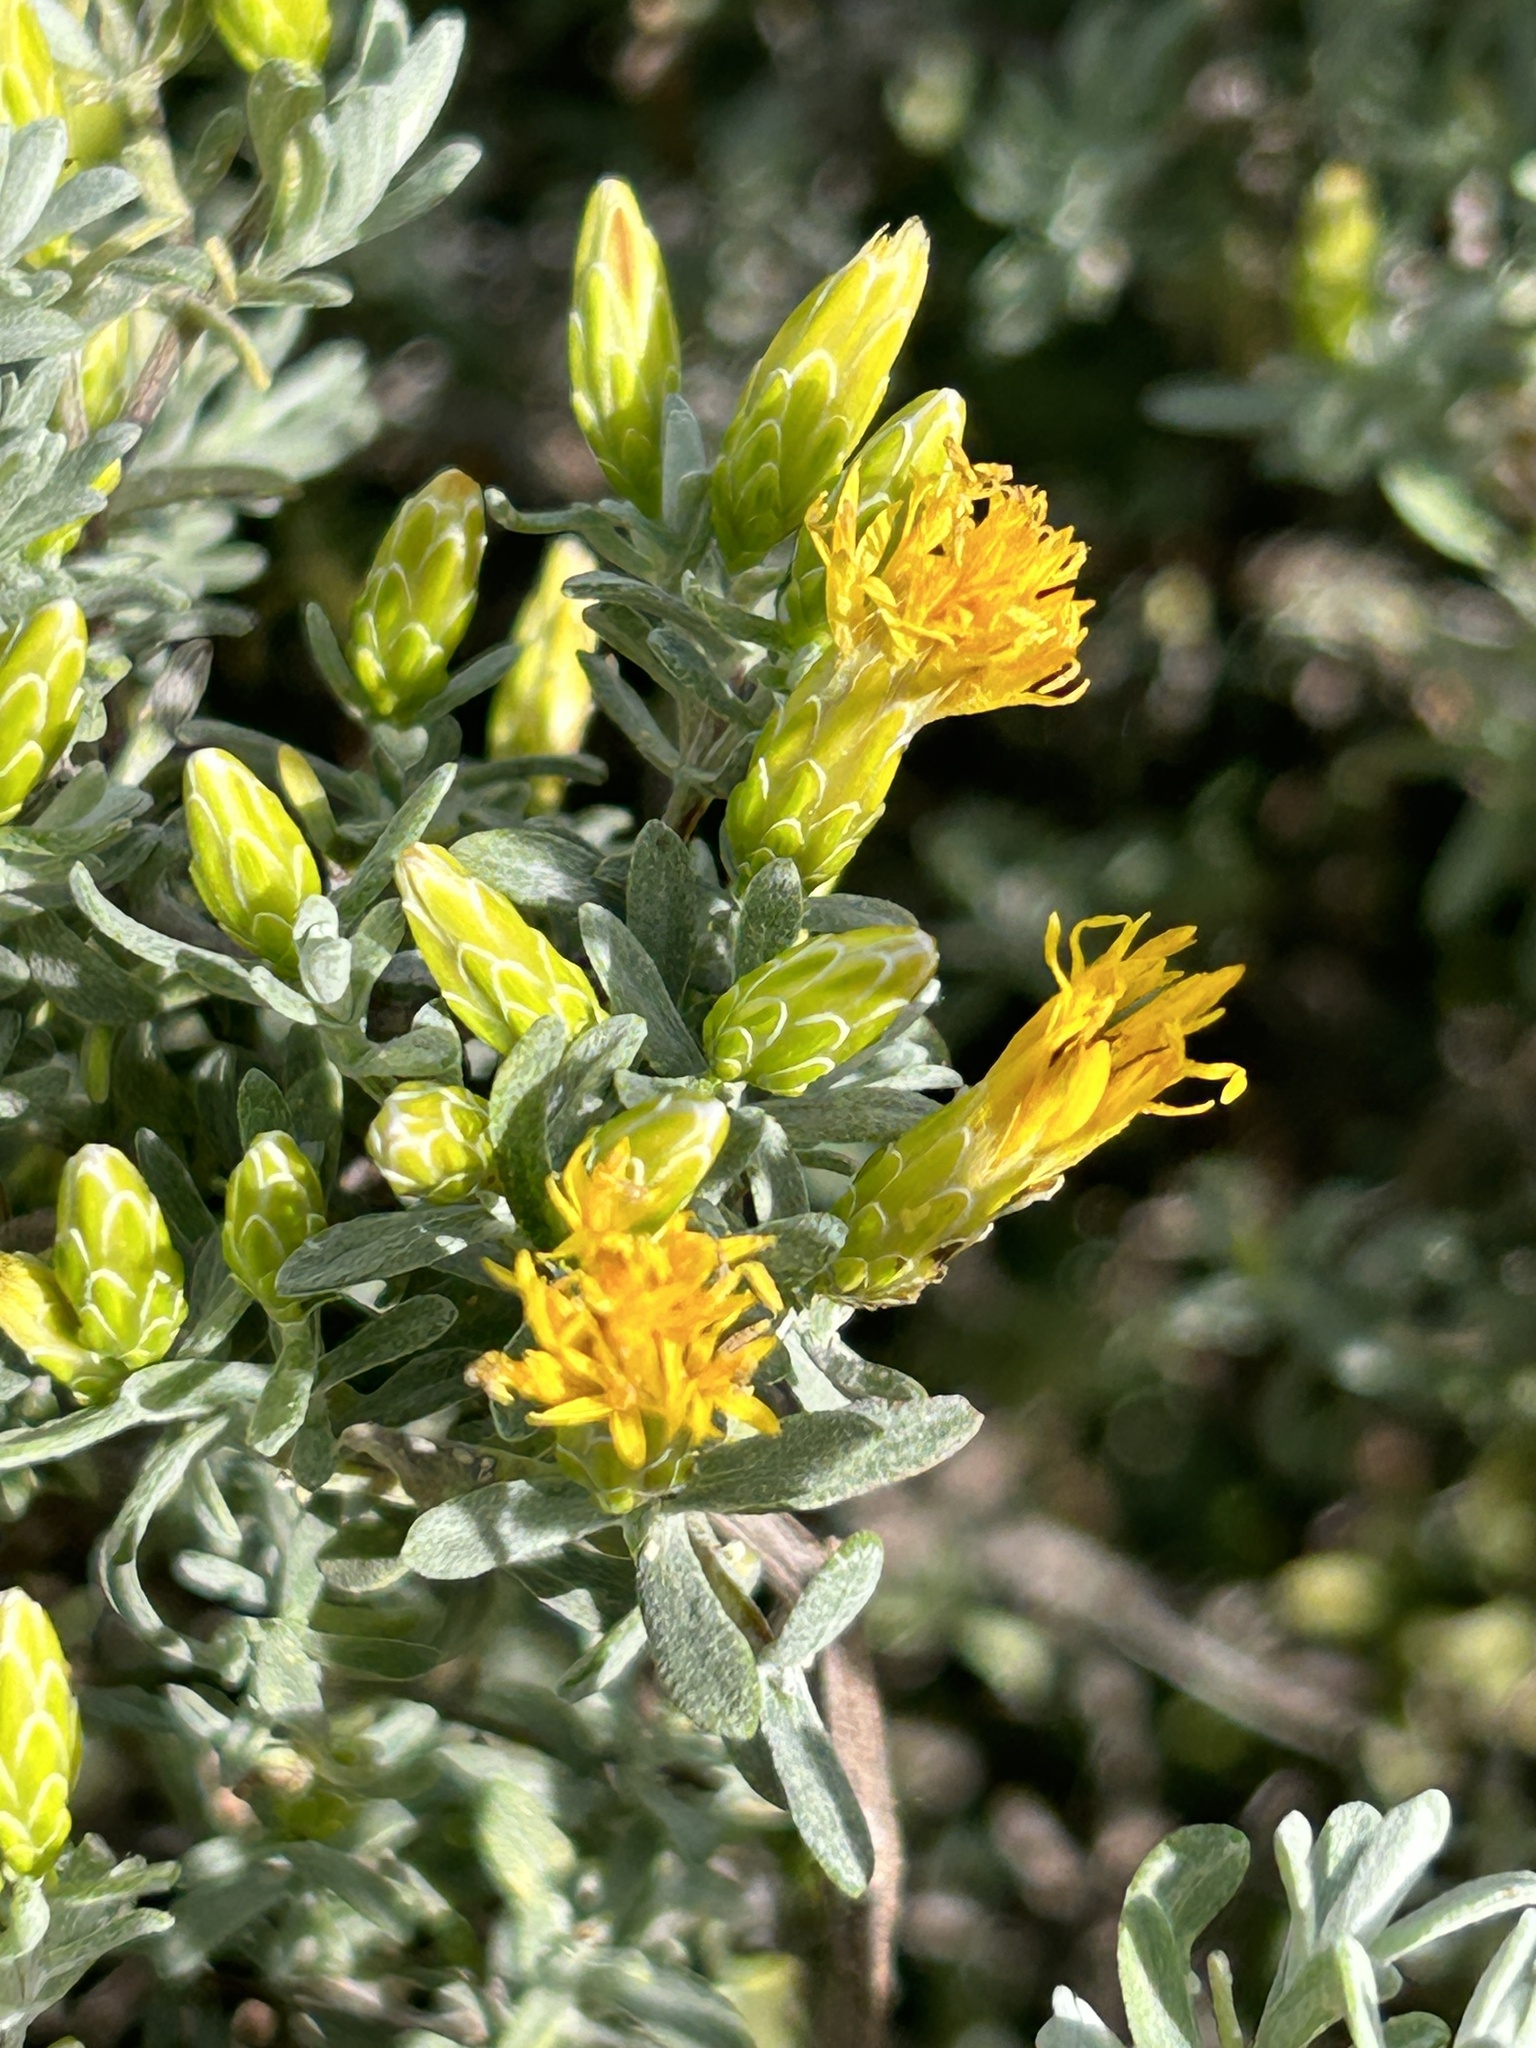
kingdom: Plantae
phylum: Tracheophyta
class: Magnoliopsida
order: Asterales
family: Asteraceae
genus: Pteronia
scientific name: Pteronia incana
